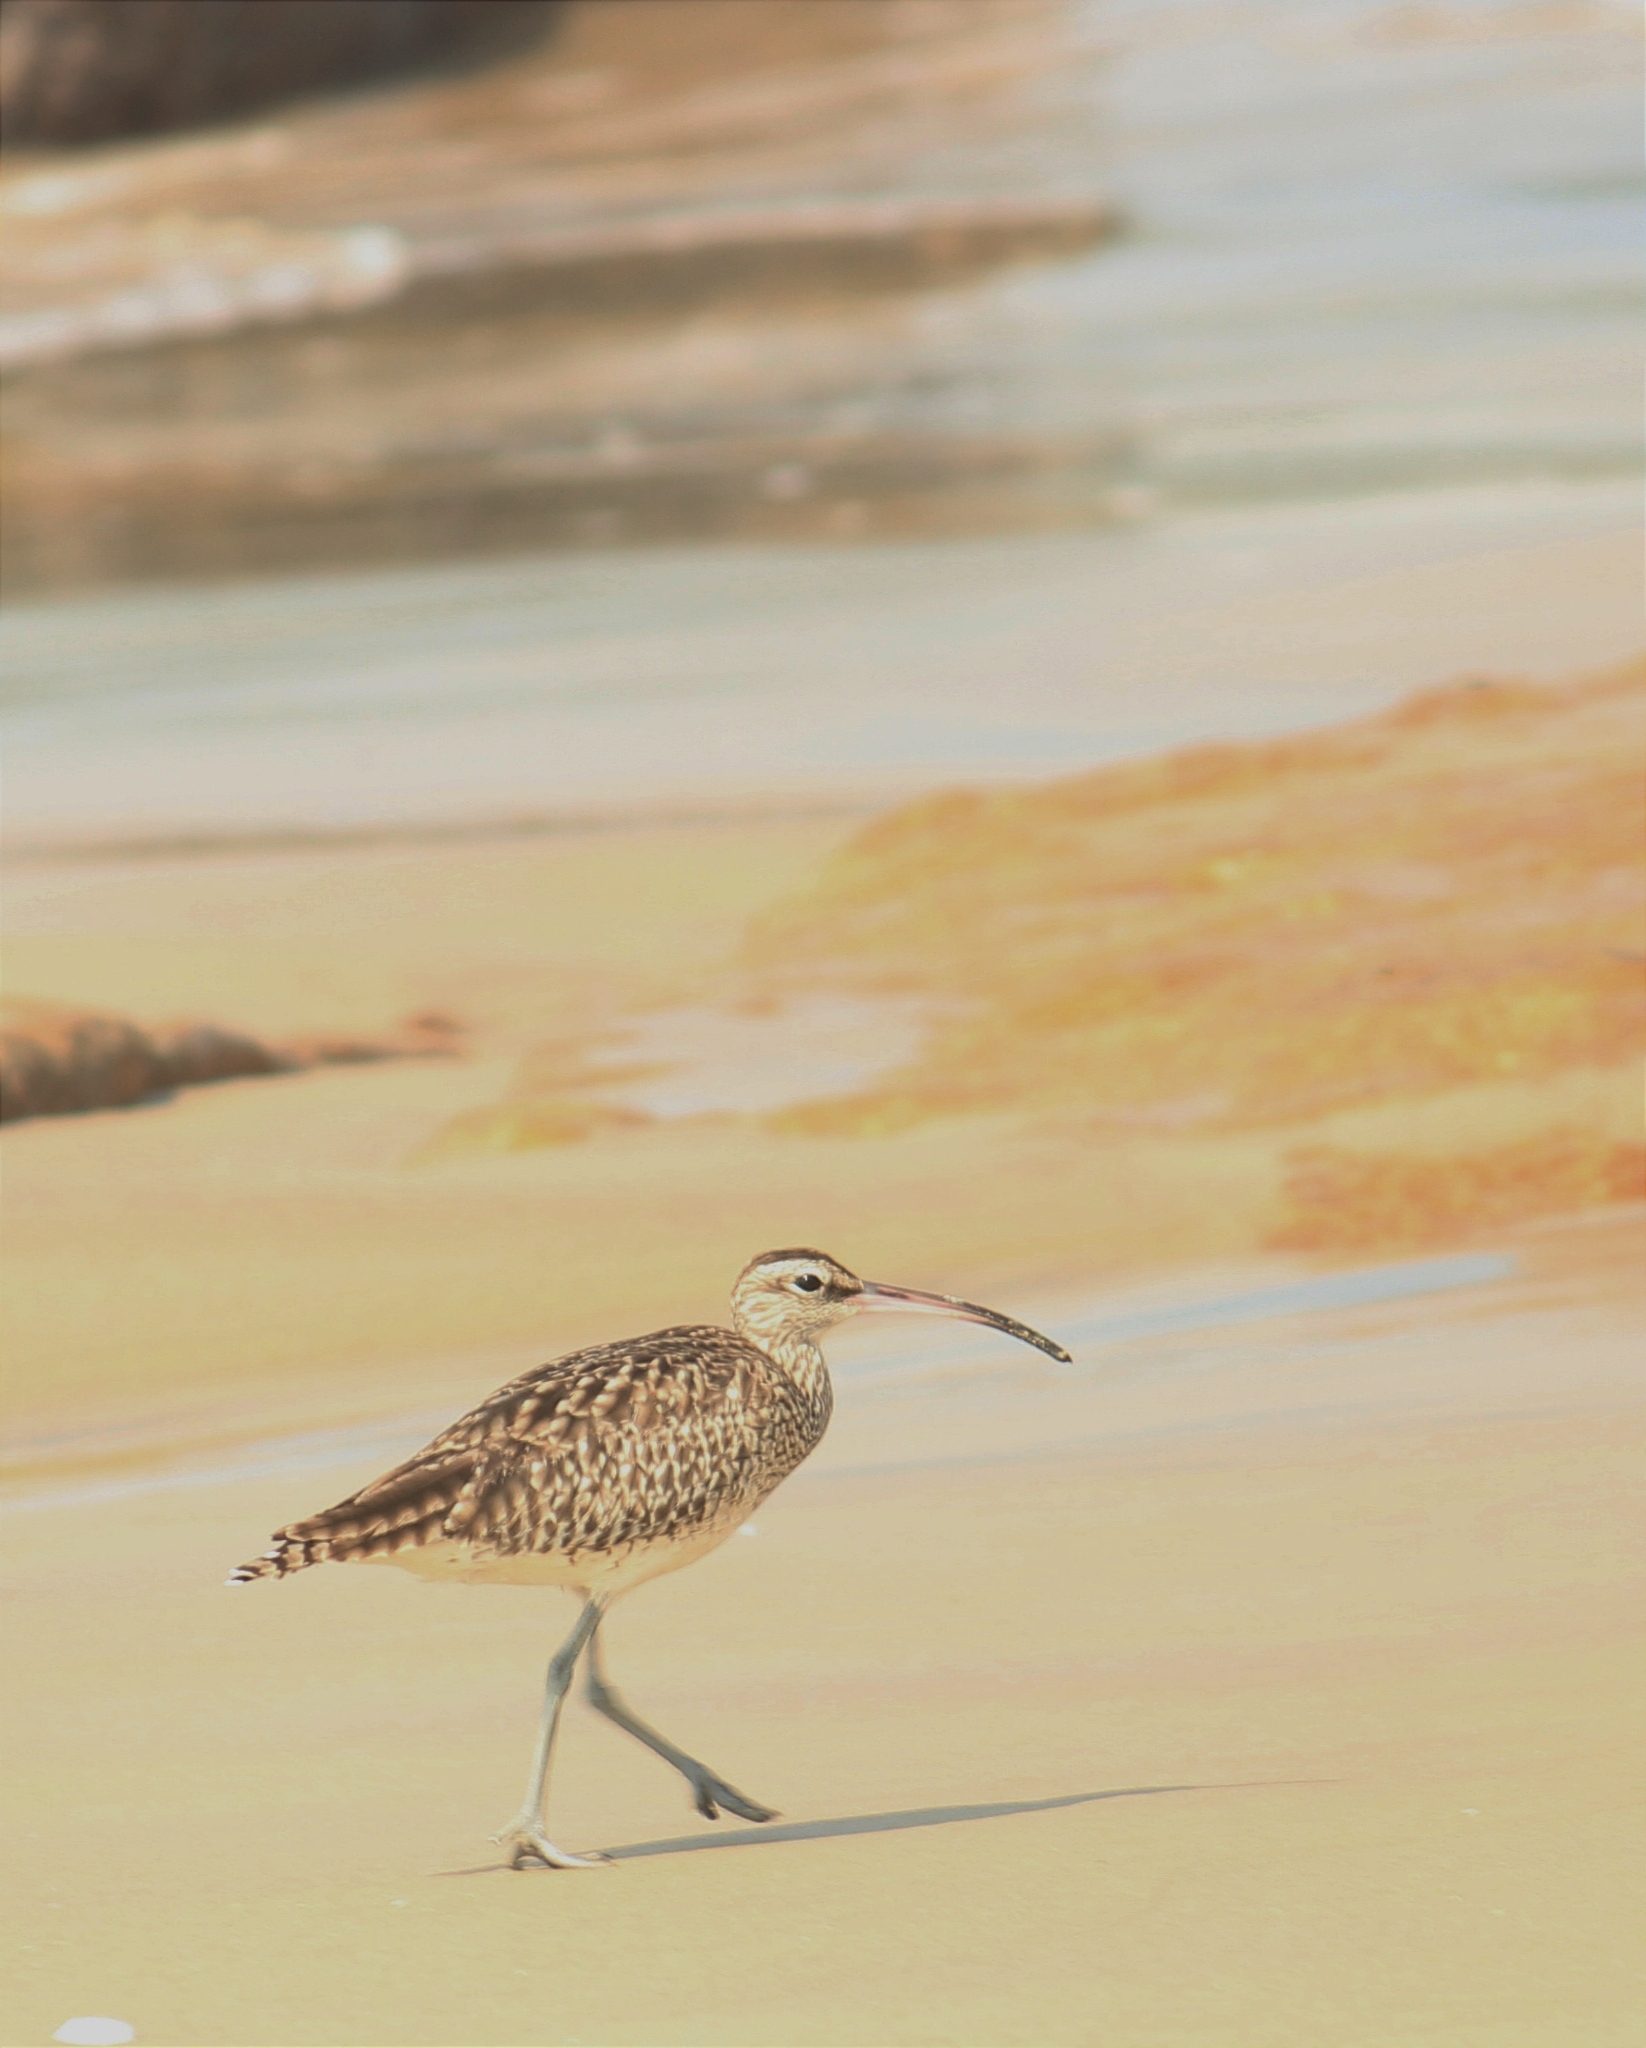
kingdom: Animalia
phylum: Chordata
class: Aves
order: Charadriiformes
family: Scolopacidae
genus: Numenius
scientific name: Numenius phaeopus
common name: Whimbrel
